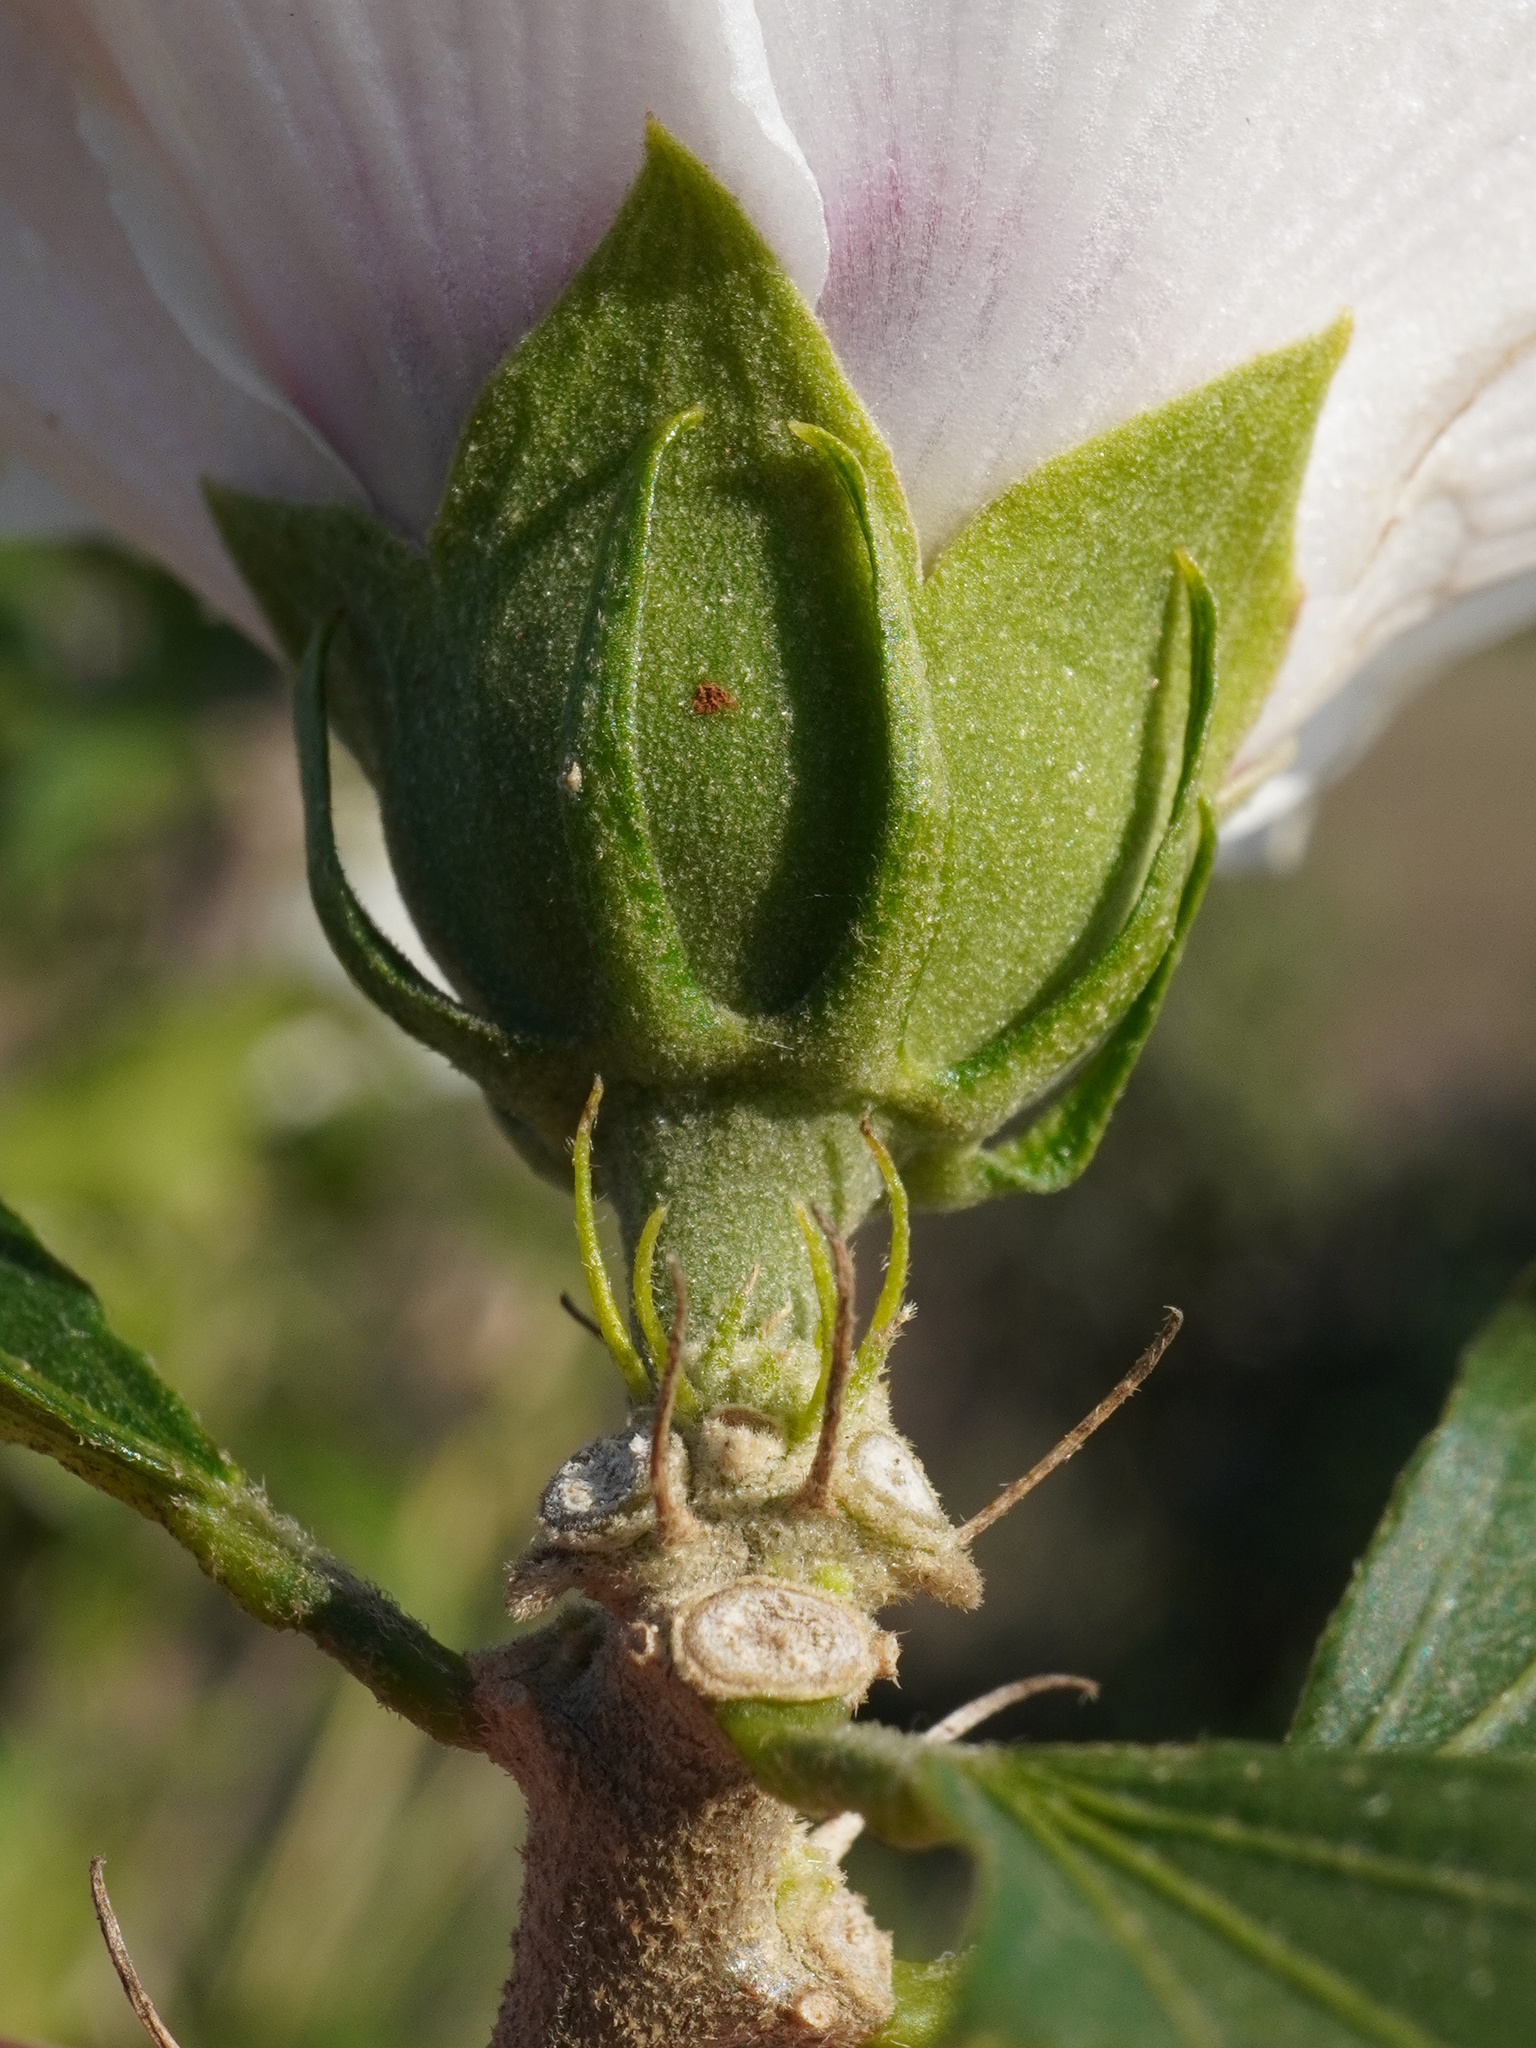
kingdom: Plantae
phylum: Tracheophyta
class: Magnoliopsida
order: Malvales
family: Malvaceae
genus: Hibiscus
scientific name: Hibiscus syriacus
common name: Syrian ketmia
